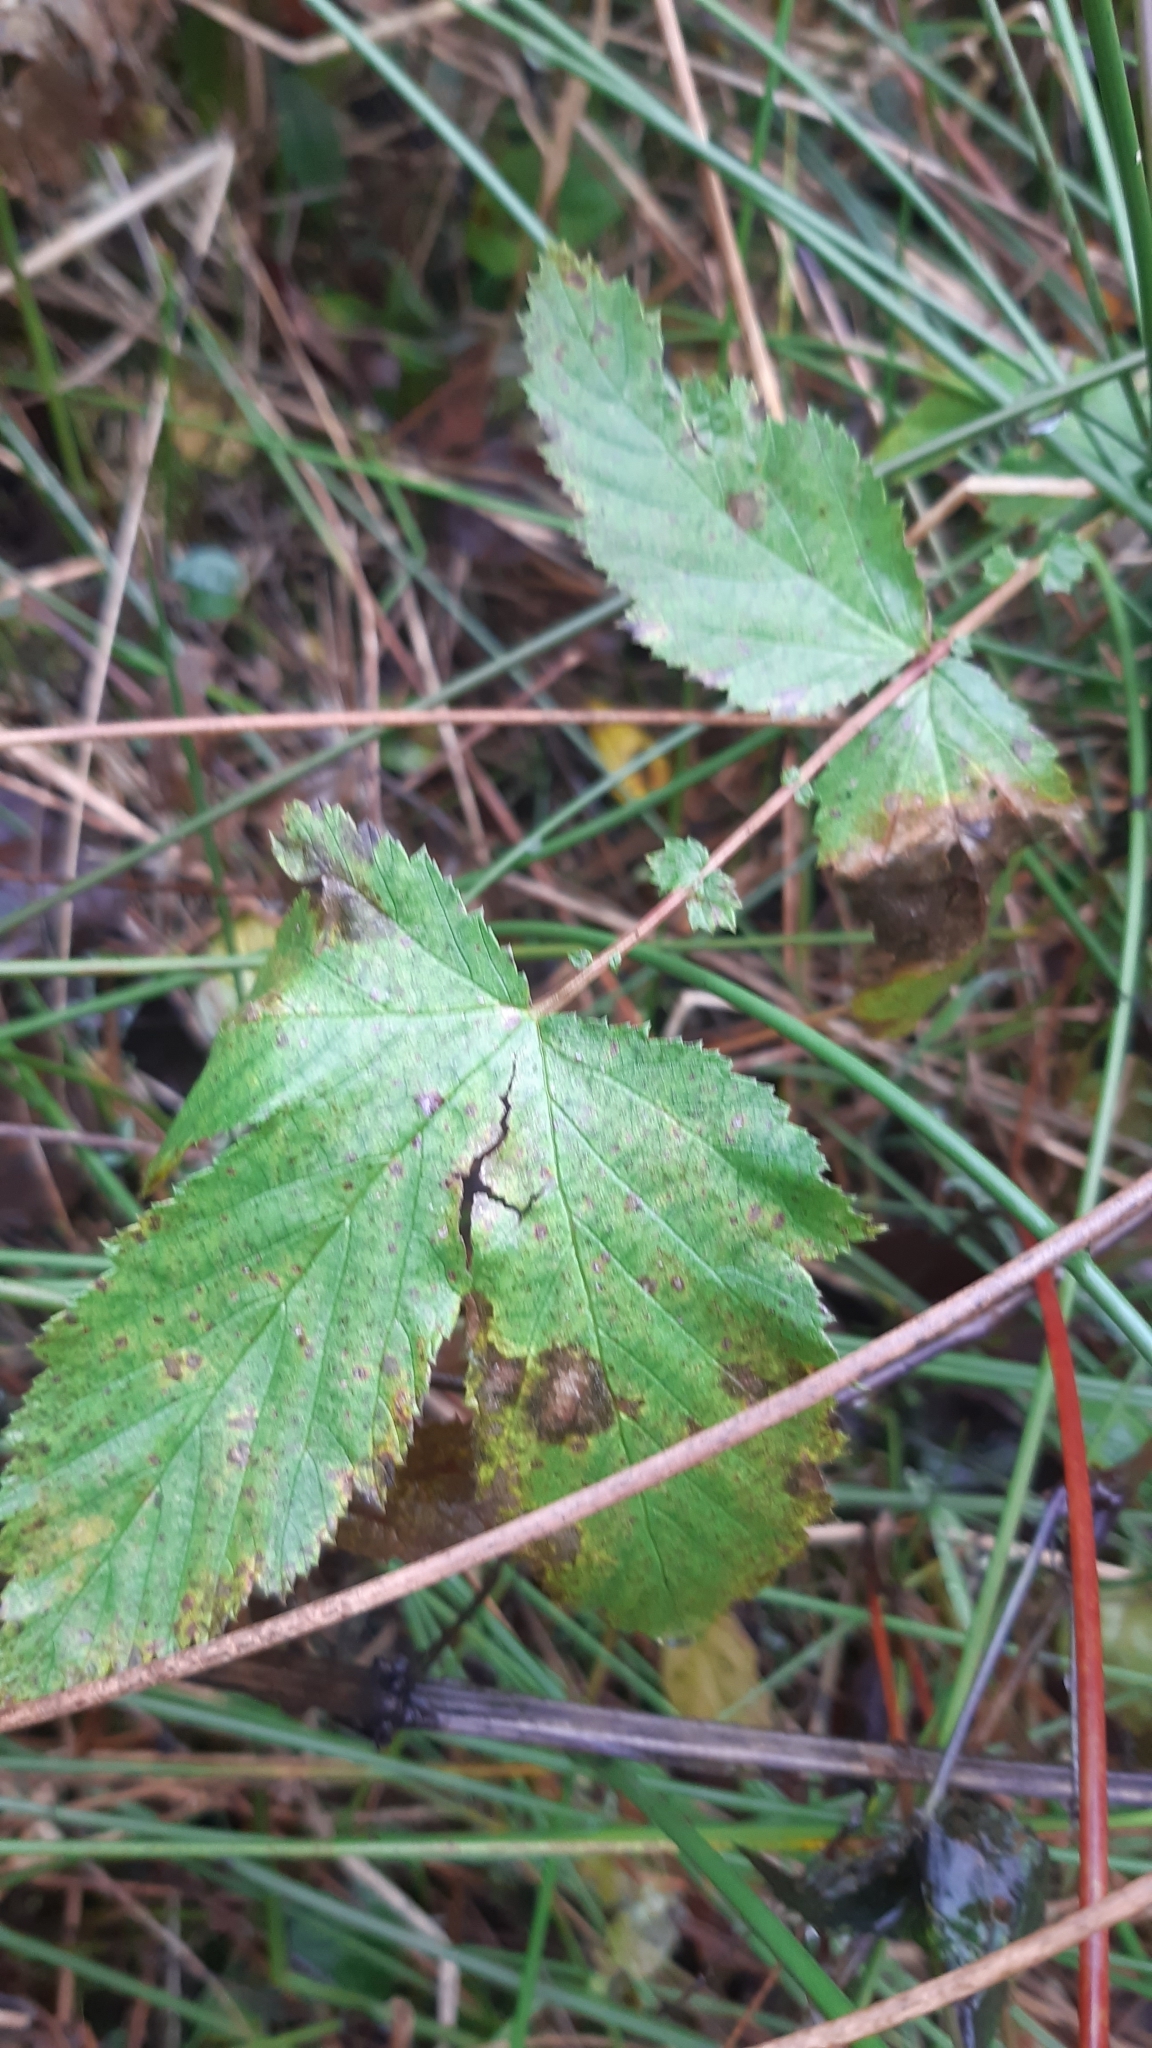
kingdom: Plantae
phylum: Tracheophyta
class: Magnoliopsida
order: Rosales
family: Rosaceae
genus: Filipendula
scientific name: Filipendula ulmaria
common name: Meadowsweet
